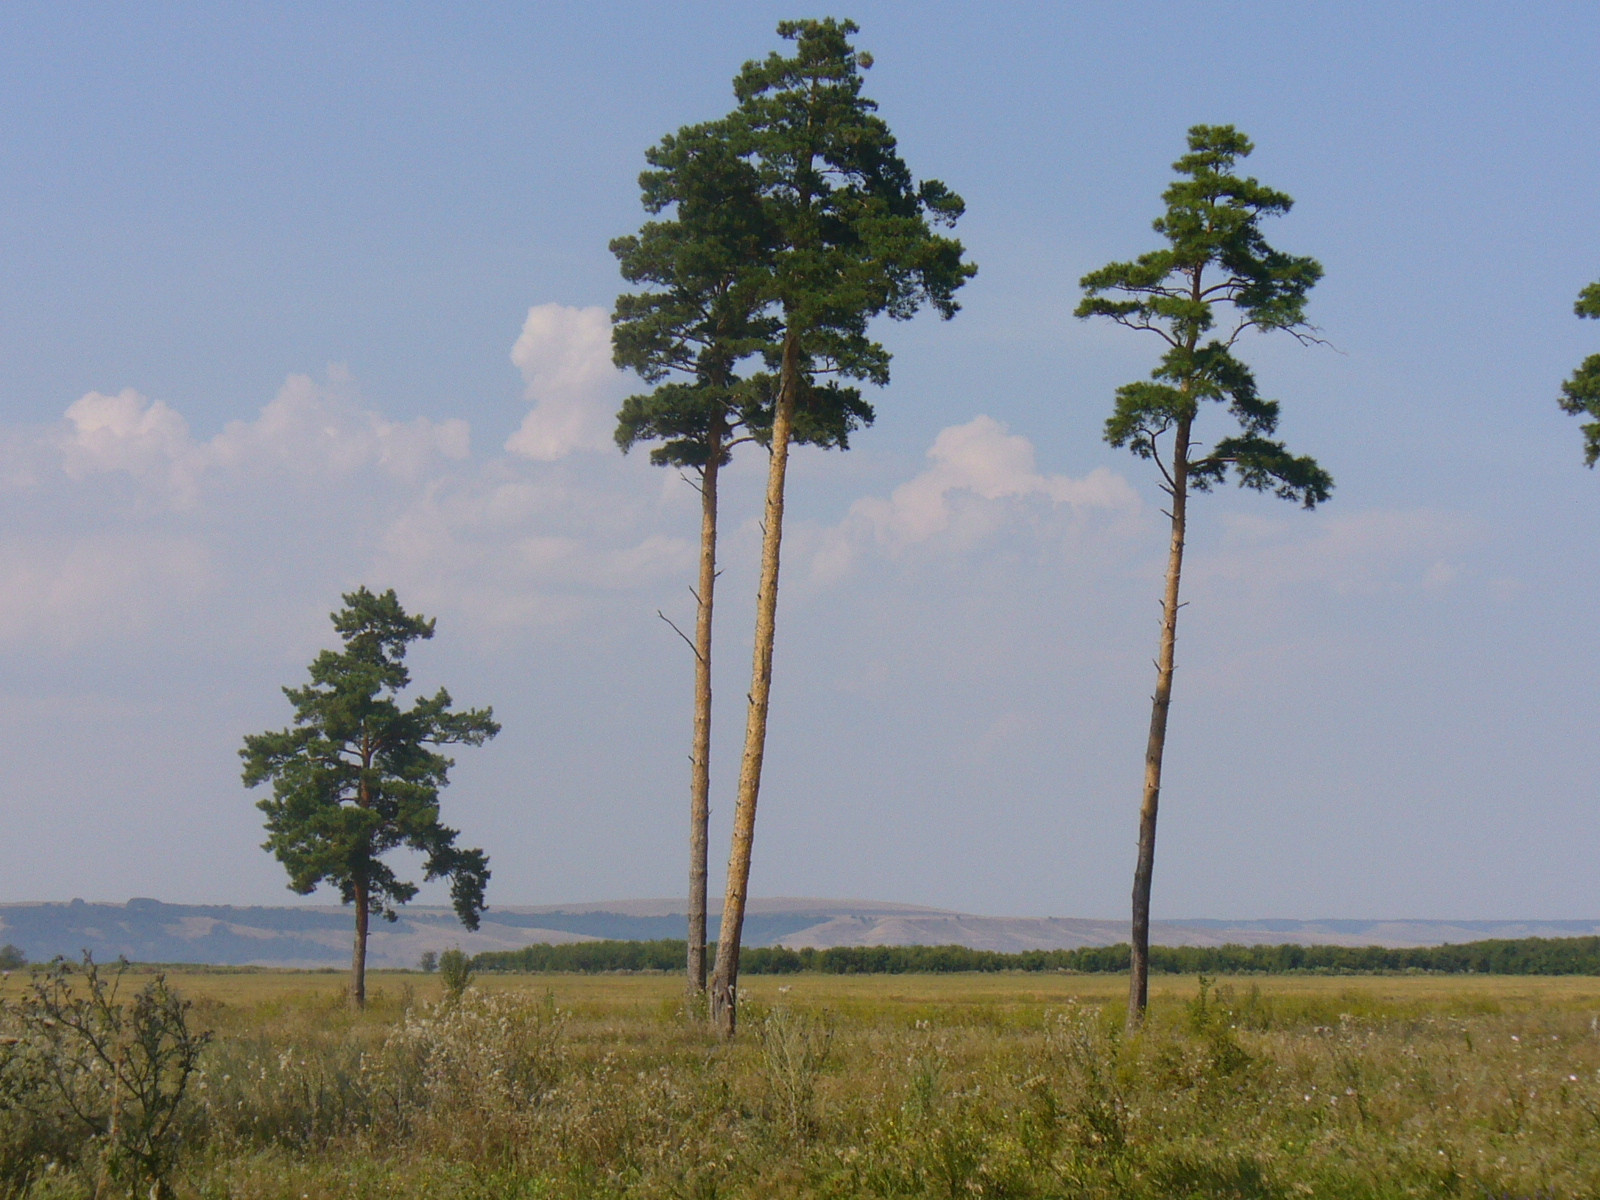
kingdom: Plantae
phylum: Tracheophyta
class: Pinopsida
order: Pinales
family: Pinaceae
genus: Pinus
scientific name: Pinus sylvestris
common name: Scots pine
